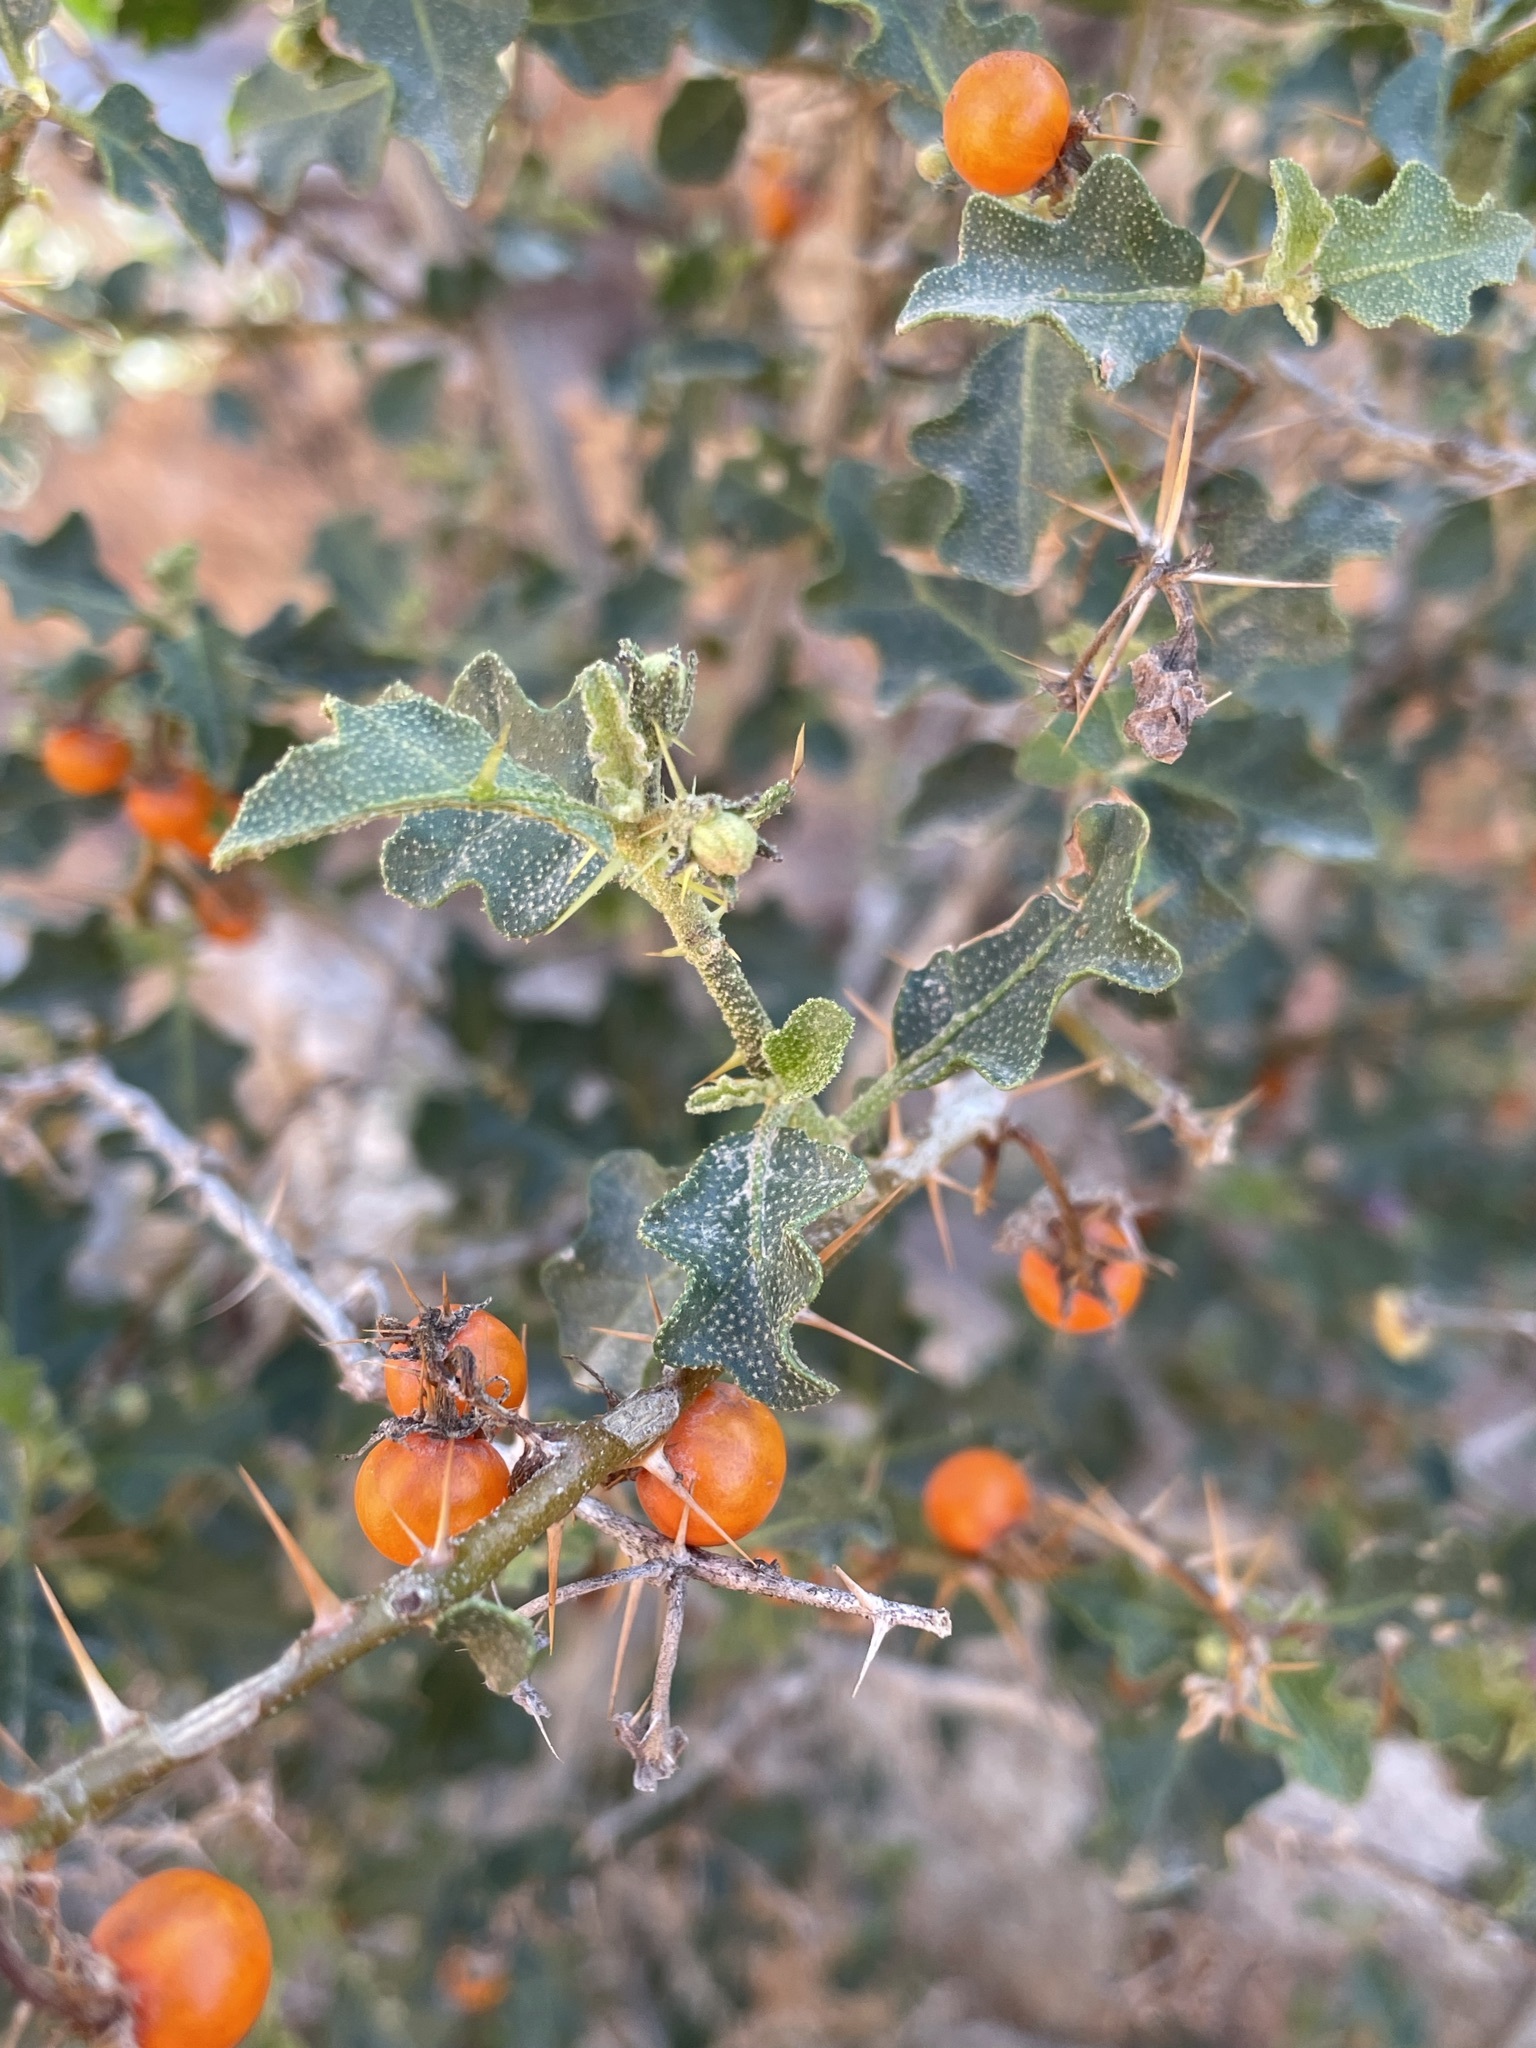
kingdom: Plantae
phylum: Tracheophyta
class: Magnoliopsida
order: Solanales
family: Solanaceae
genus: Solanum
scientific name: Solanum humile
